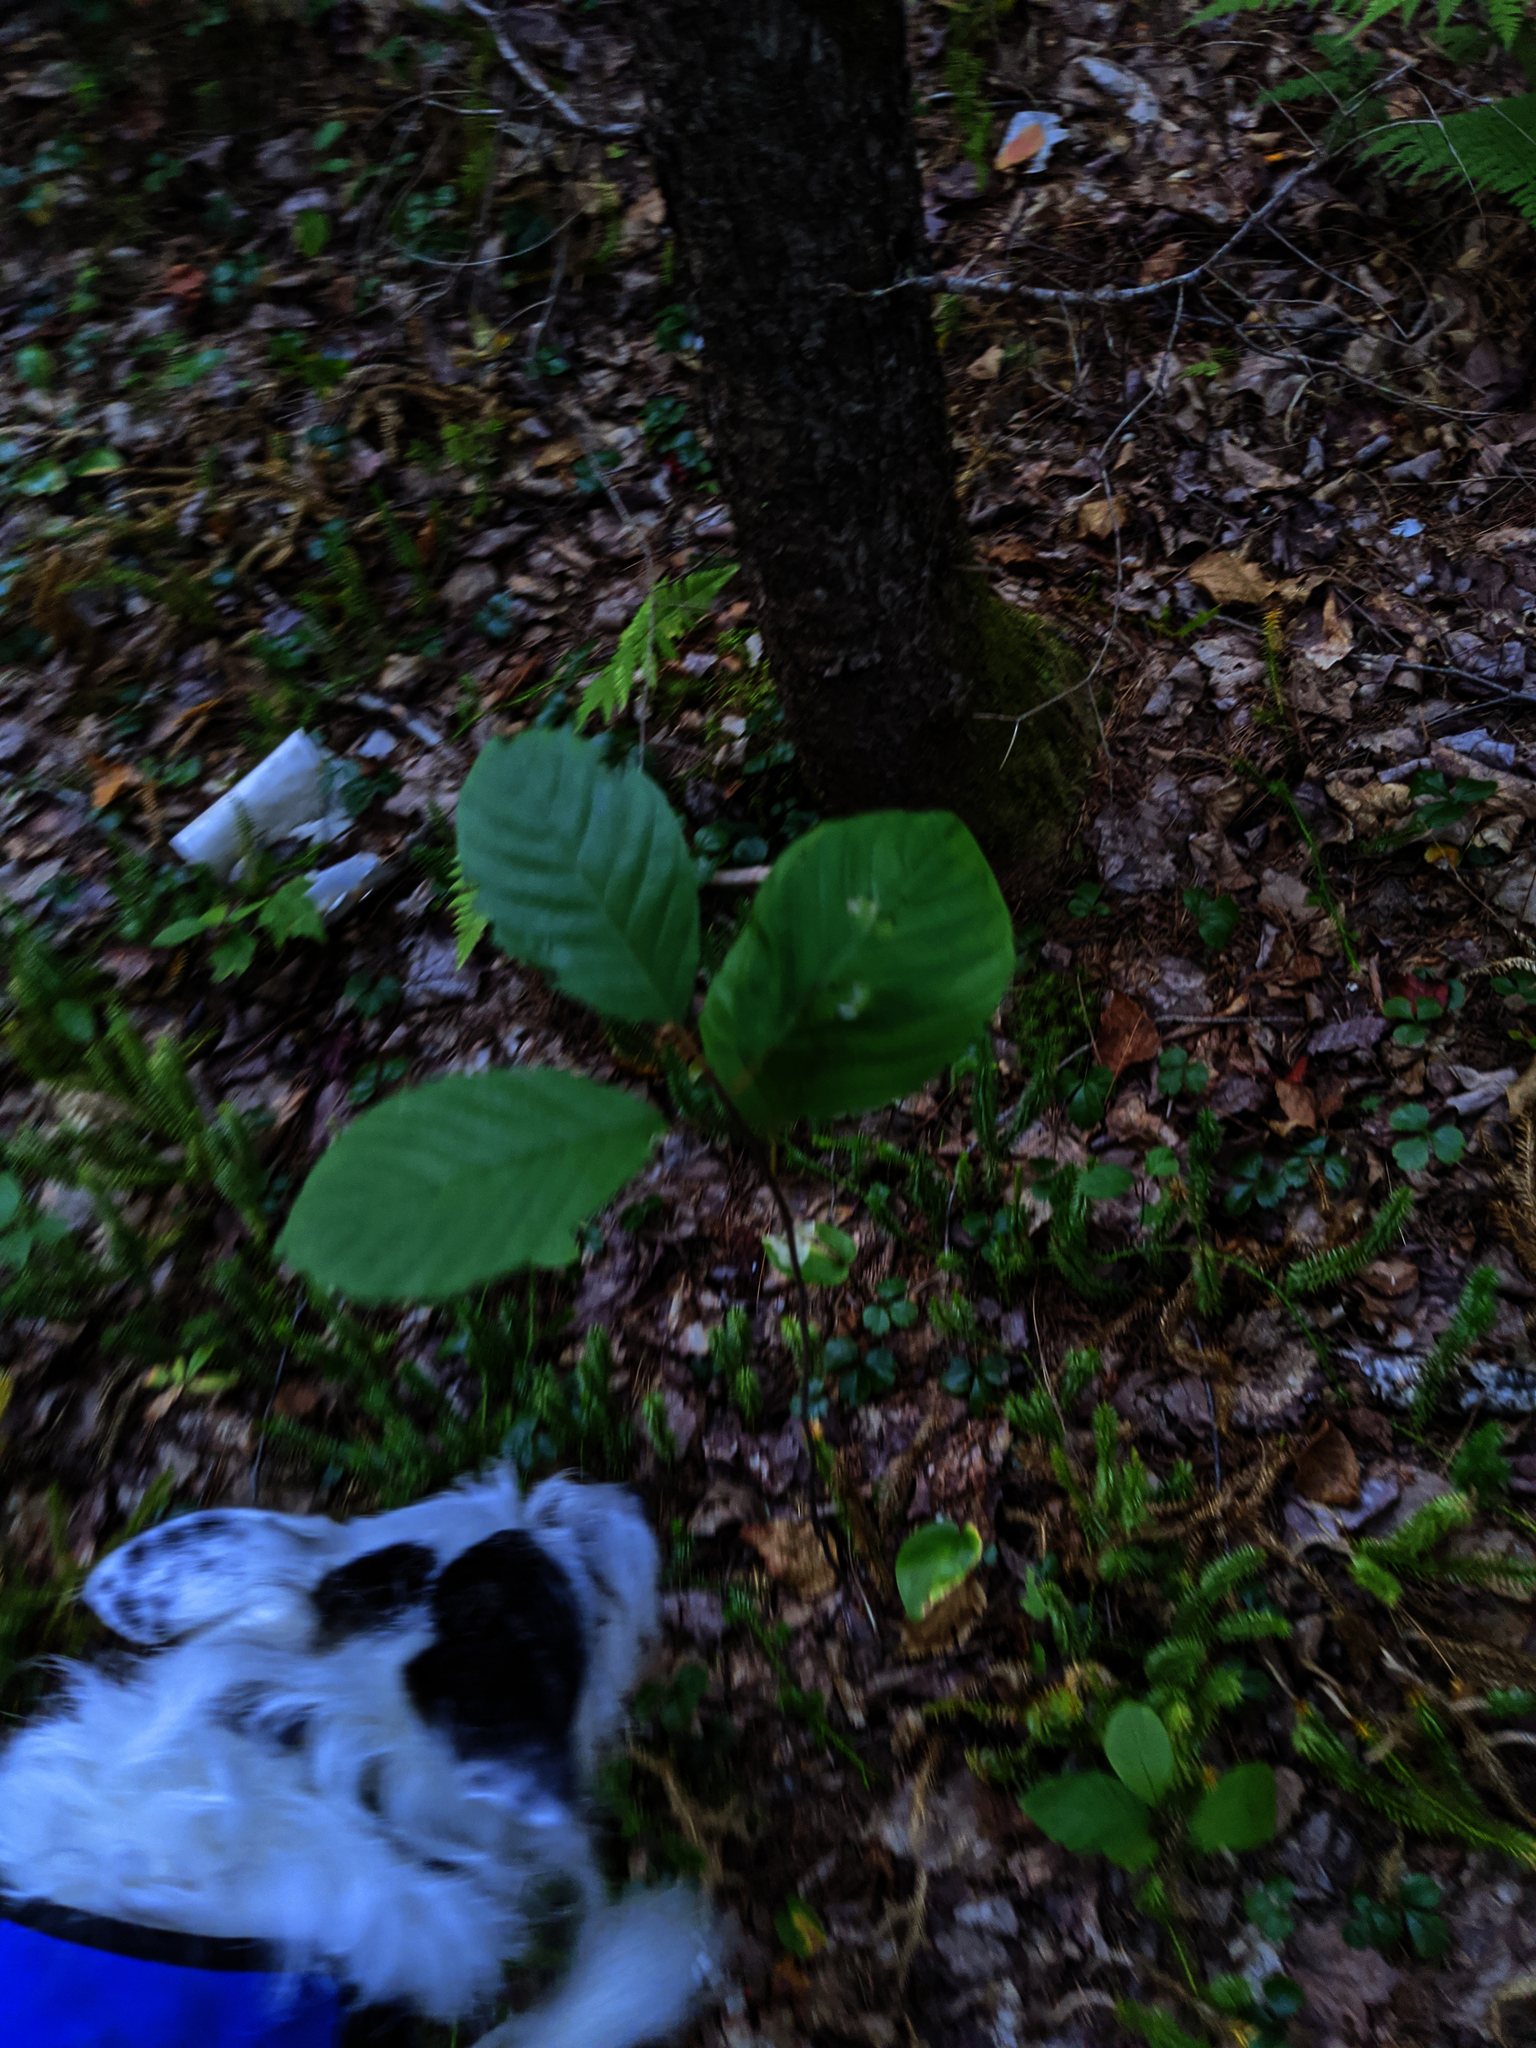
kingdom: Plantae
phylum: Tracheophyta
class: Magnoliopsida
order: Rosales
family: Rhamnaceae
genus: Frangula
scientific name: Frangula alnus
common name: Alder buckthorn
